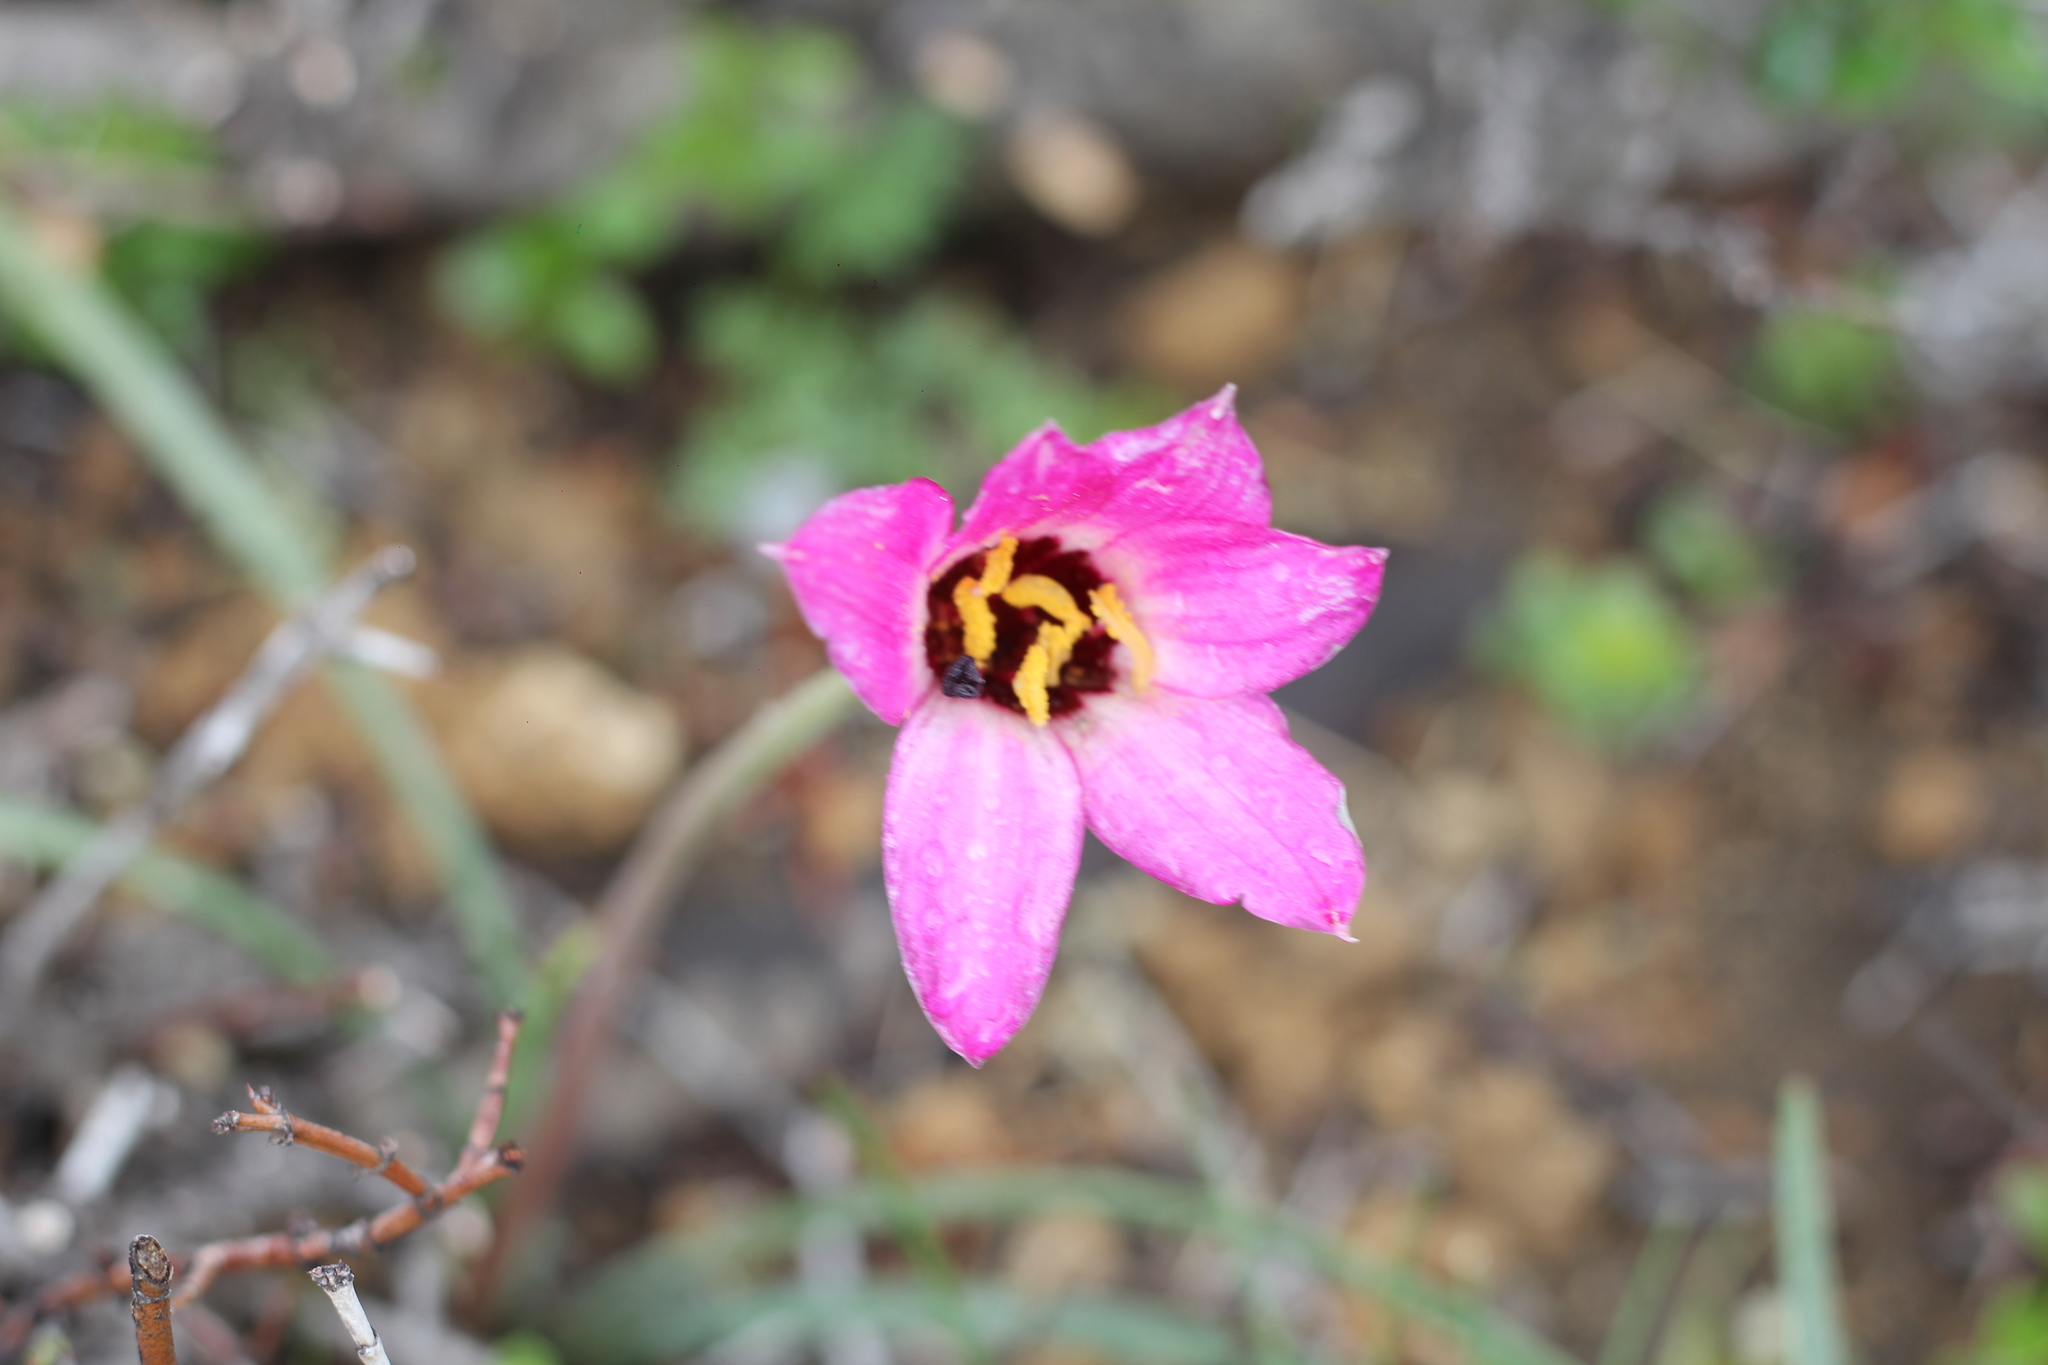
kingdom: Plantae
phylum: Tracheophyta
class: Liliopsida
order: Asparagales
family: Amaryllidaceae
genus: Rhodolirium
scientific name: Rhodolirium andicola
